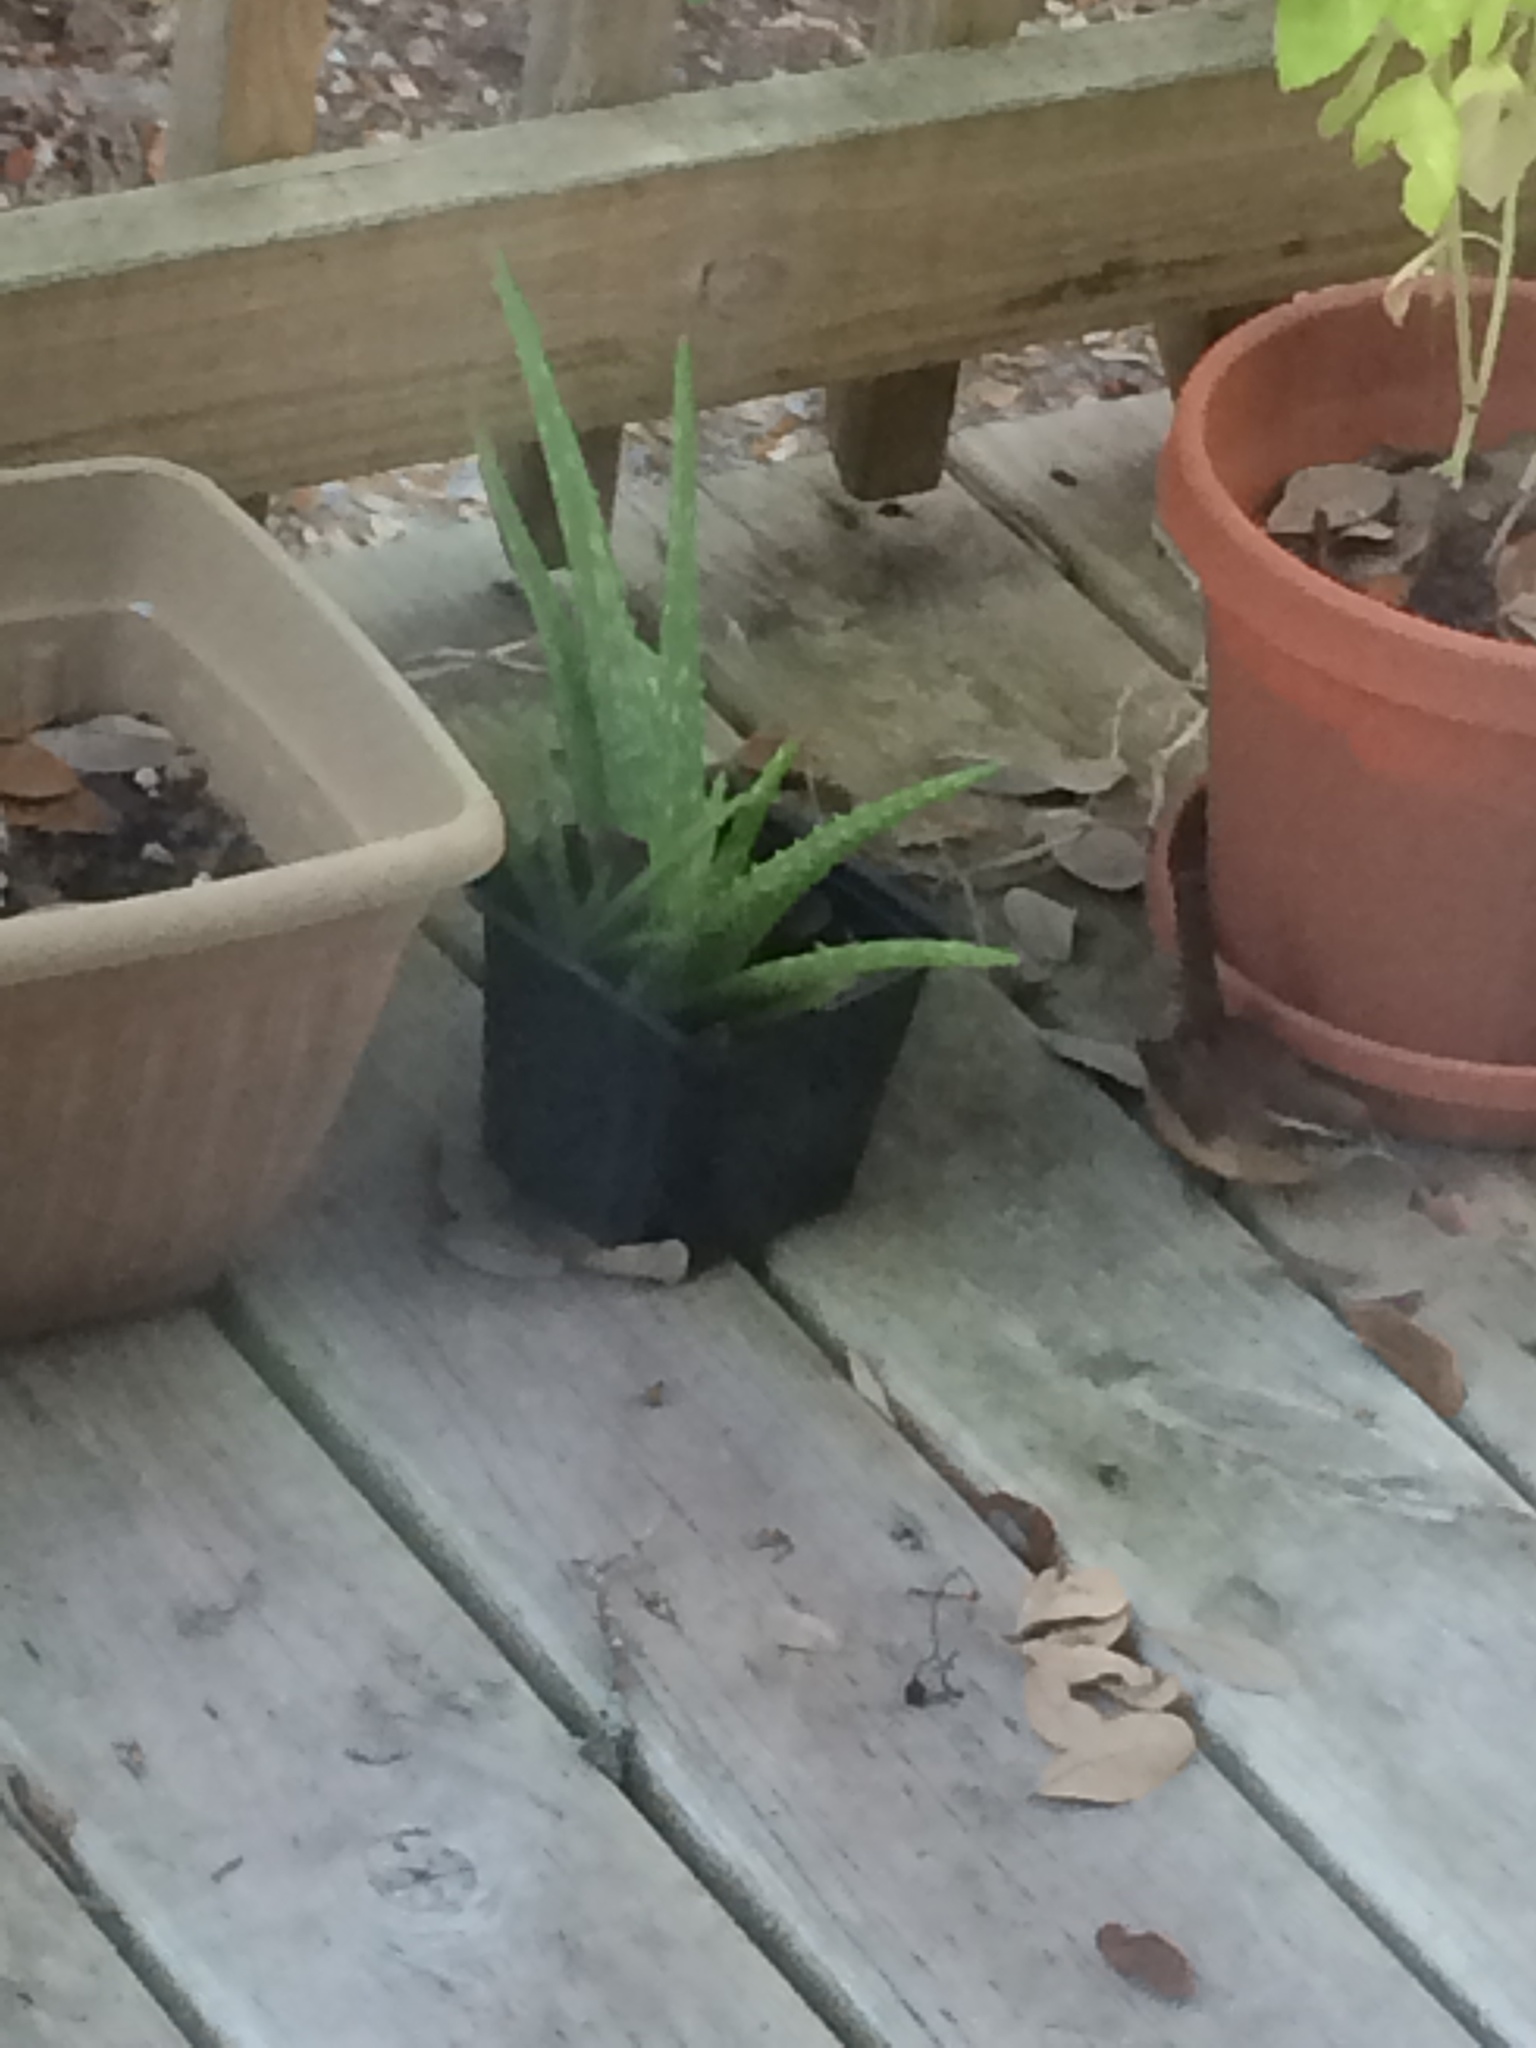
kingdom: Animalia
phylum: Chordata
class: Aves
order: Passeriformes
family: Troglodytidae
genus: Thryothorus
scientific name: Thryothorus ludovicianus
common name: Carolina wren
